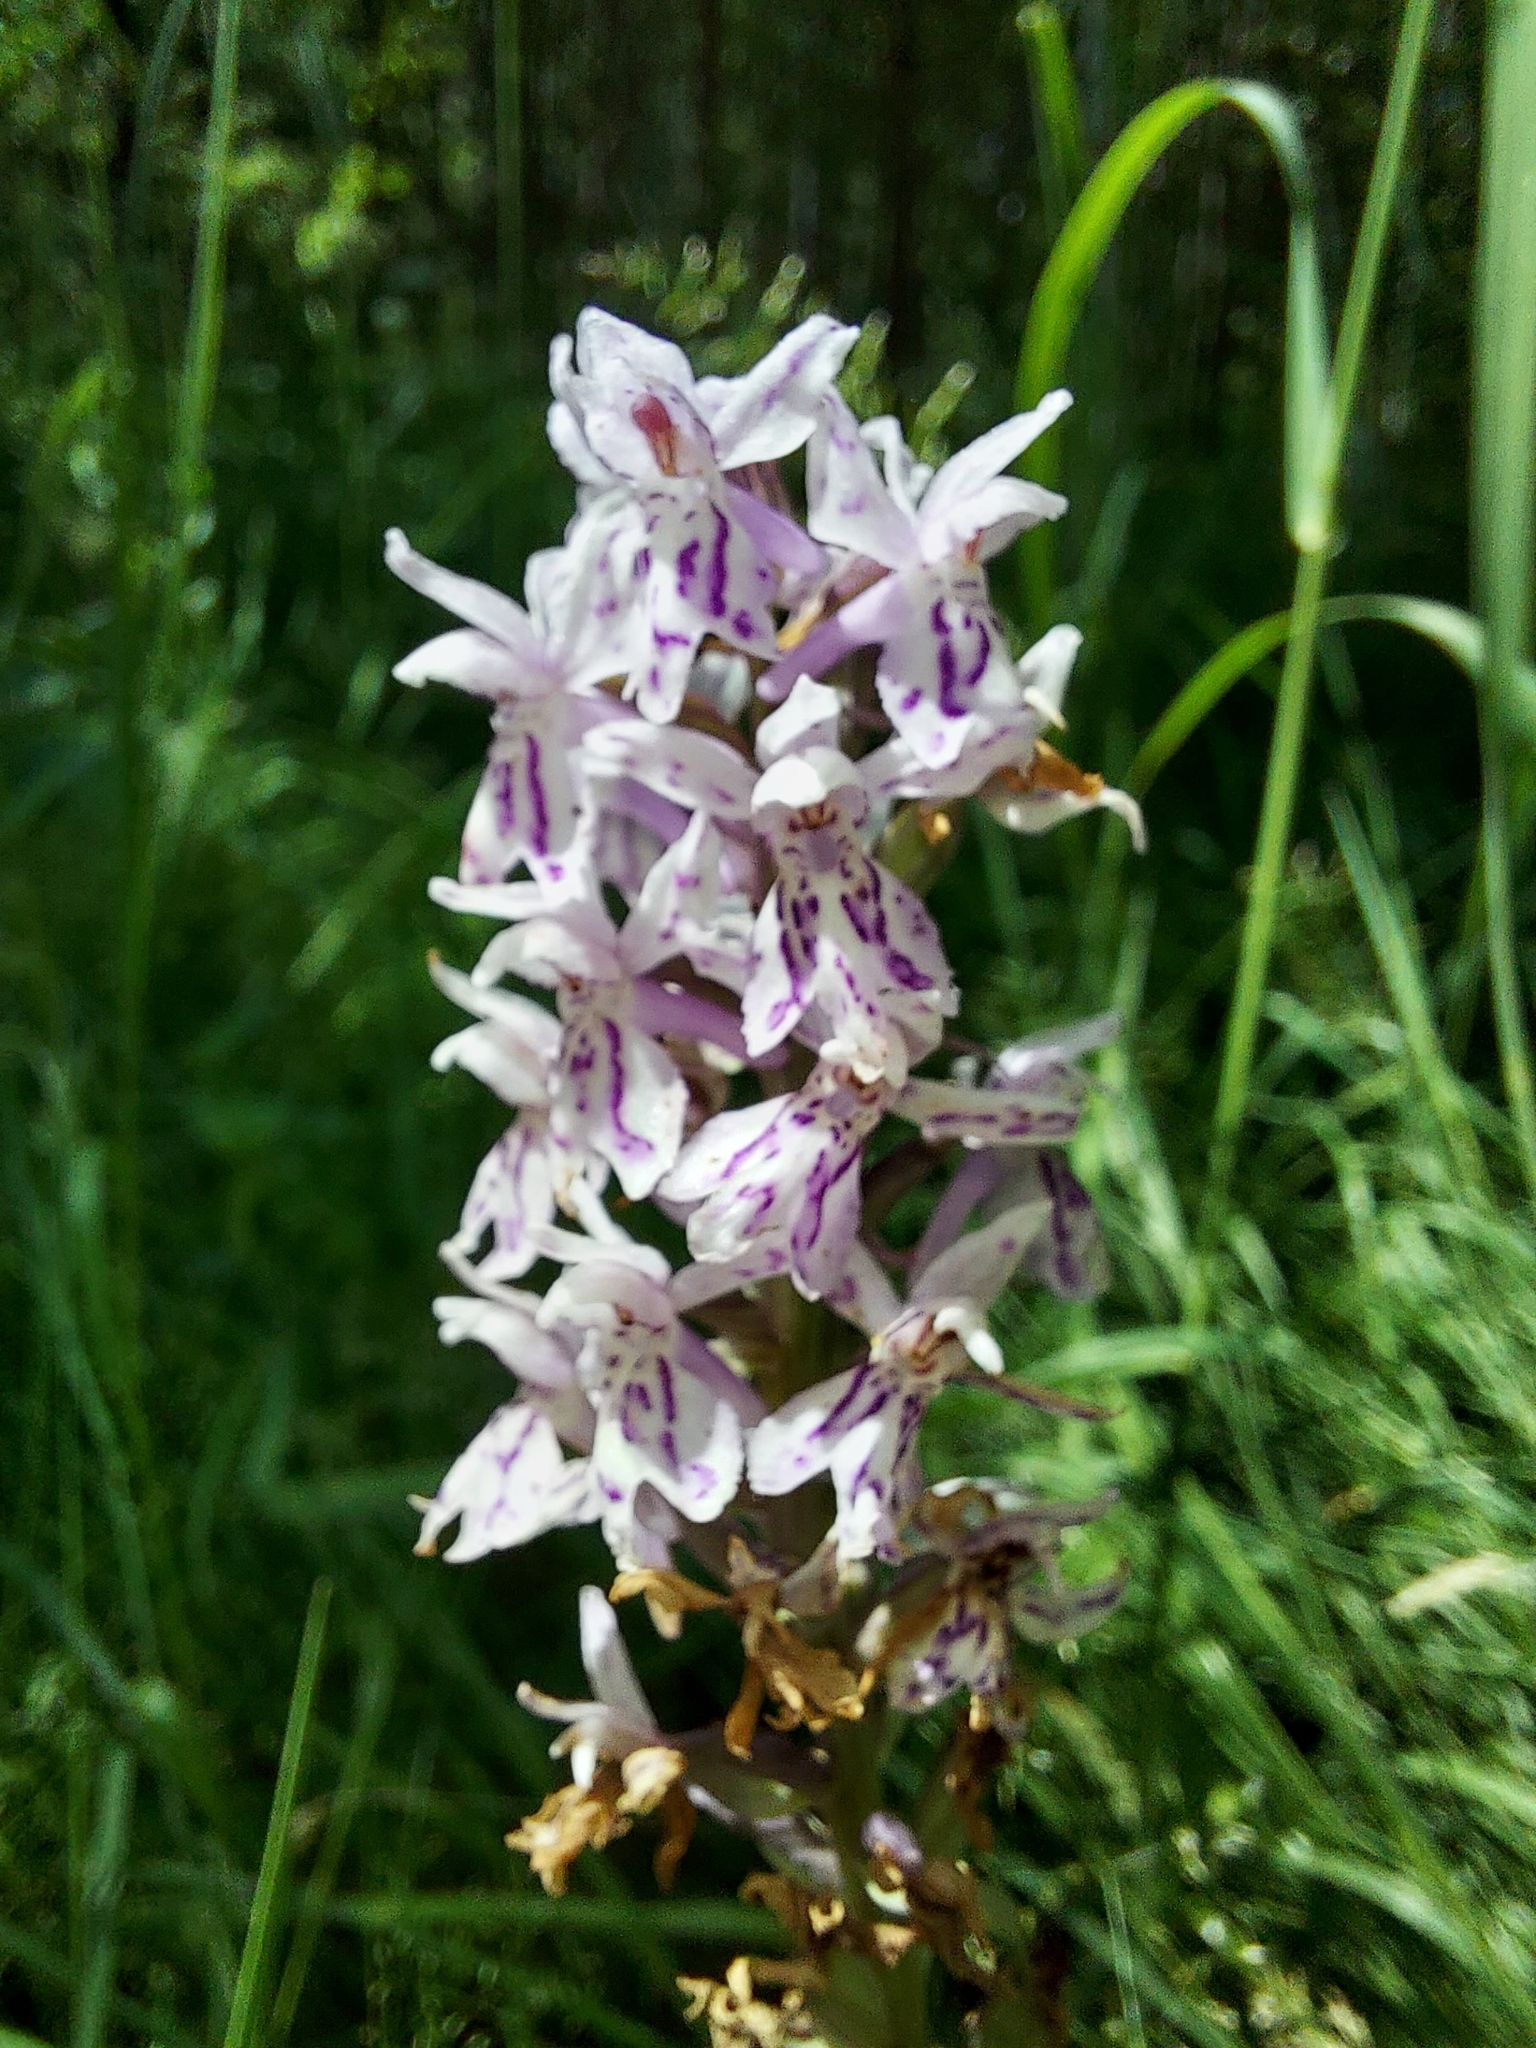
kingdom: Plantae
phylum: Tracheophyta
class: Liliopsida
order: Asparagales
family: Orchidaceae
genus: Dactylorhiza
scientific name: Dactylorhiza maculata
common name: Heath spotted-orchid
